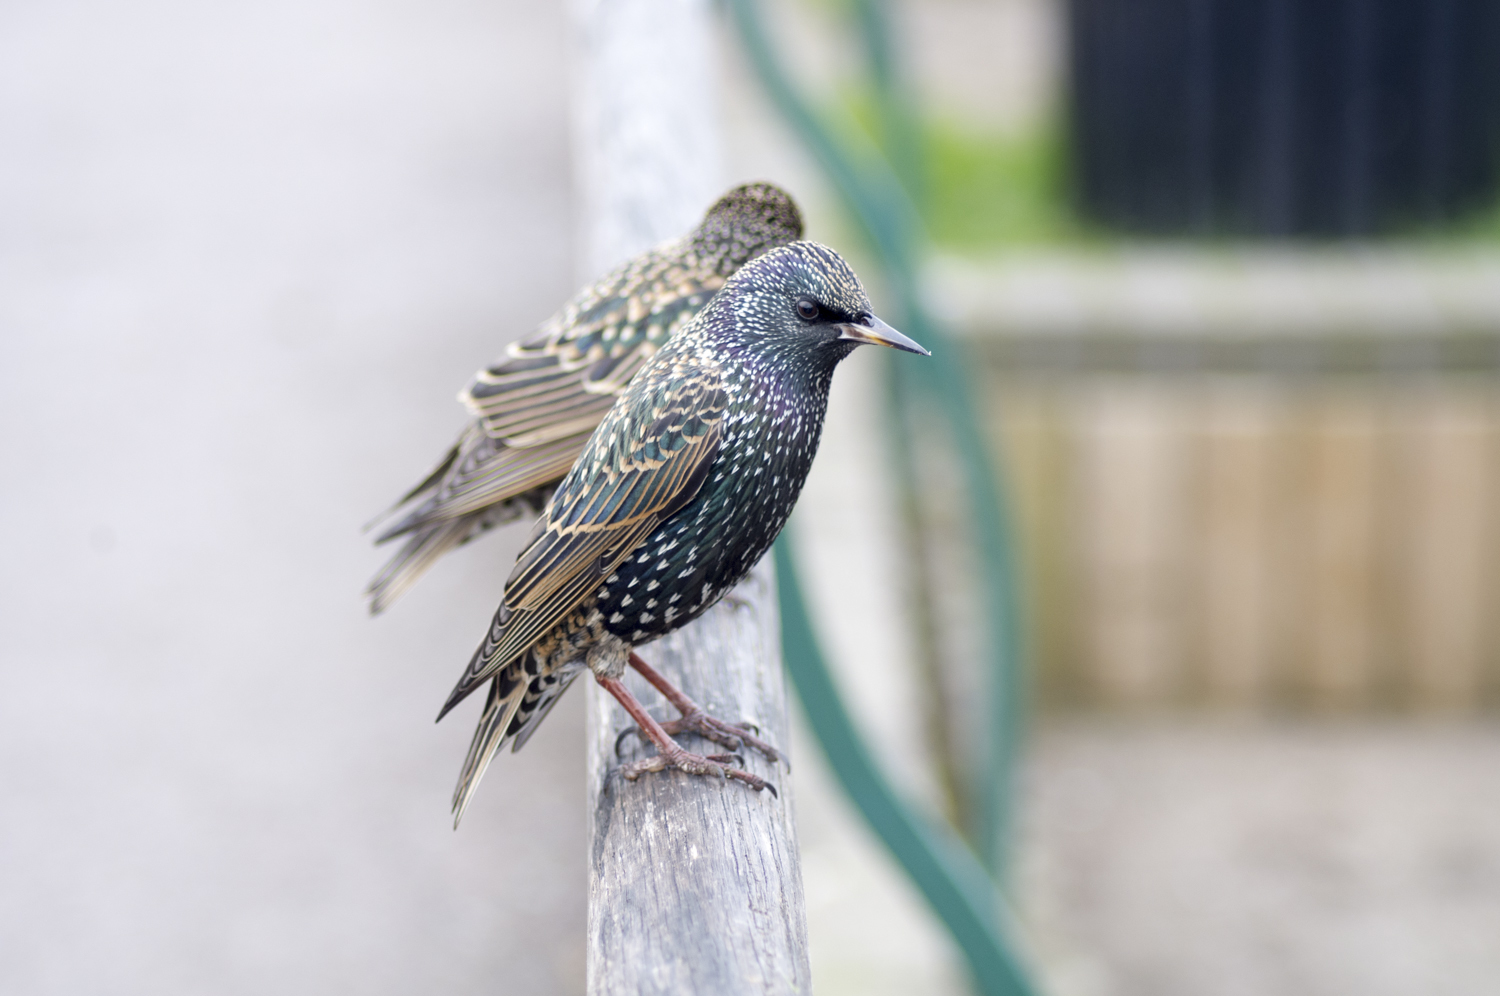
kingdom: Animalia
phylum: Chordata
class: Aves
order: Passeriformes
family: Sturnidae
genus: Sturnus
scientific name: Sturnus vulgaris
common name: Common starling
